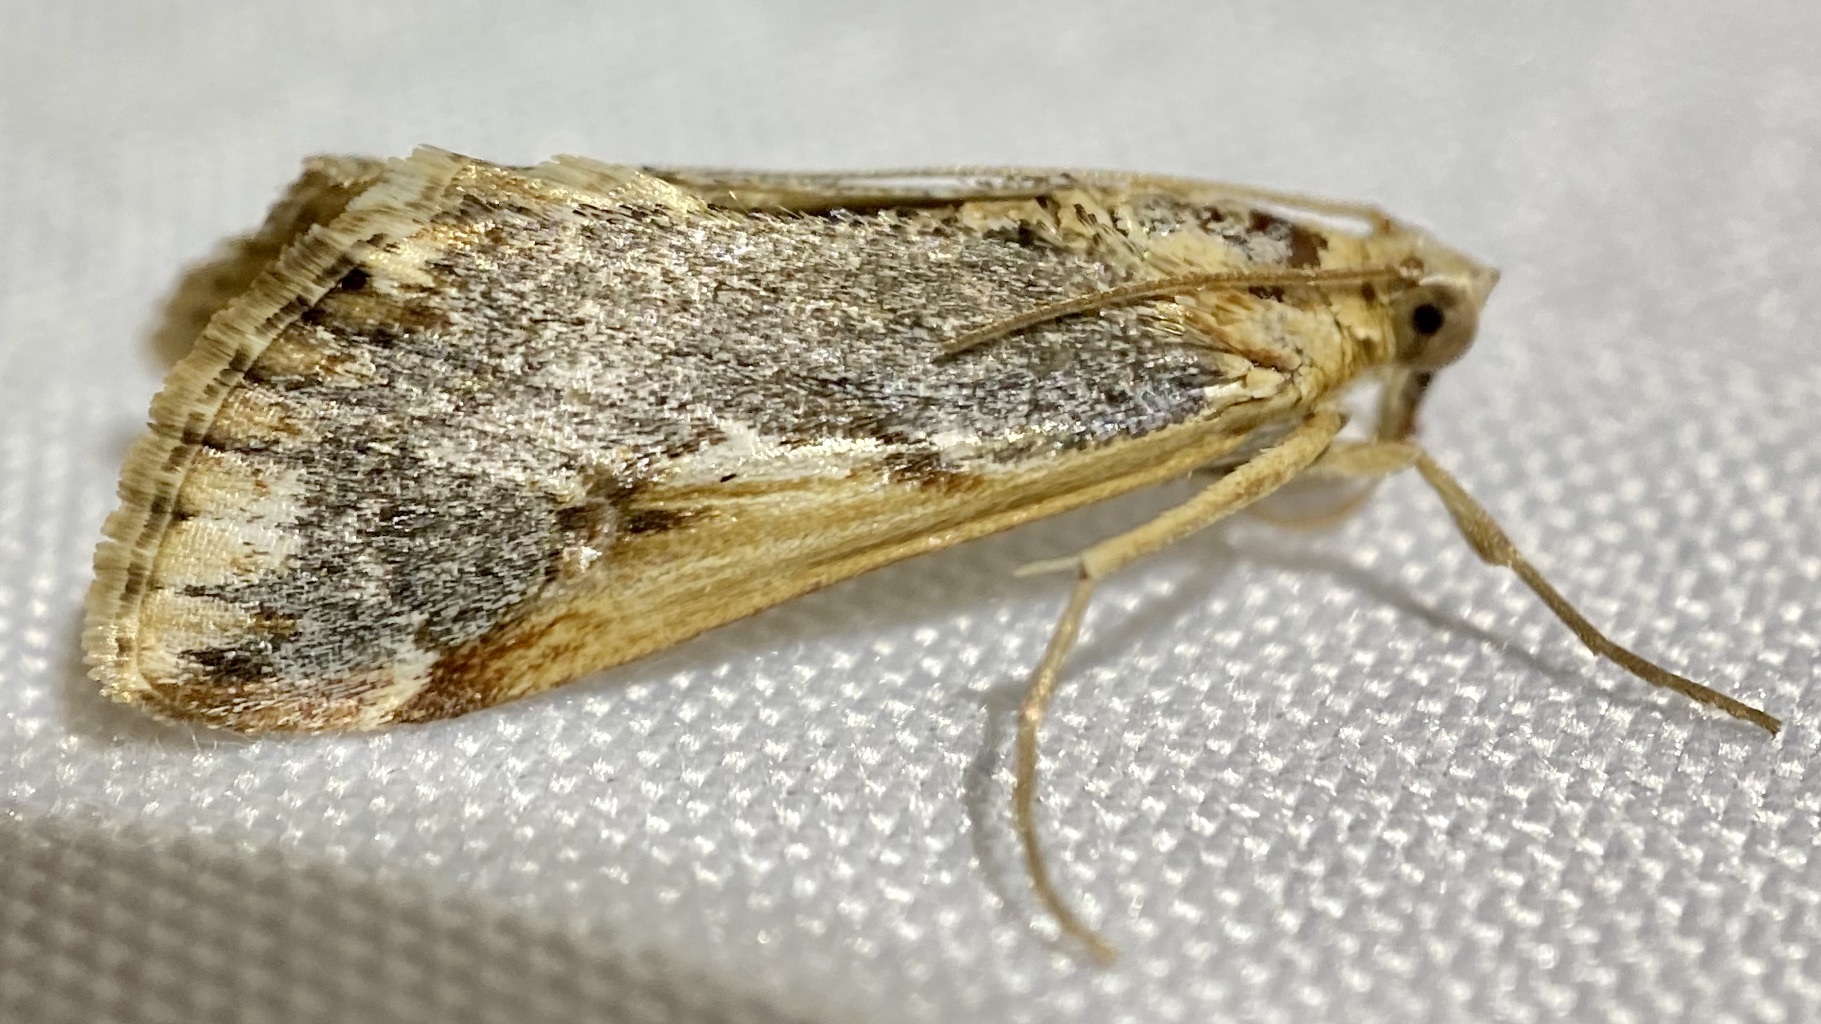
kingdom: Animalia
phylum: Arthropoda
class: Insecta
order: Lepidoptera
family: Crambidae
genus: Loxostege
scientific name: Loxostege albiceralis
